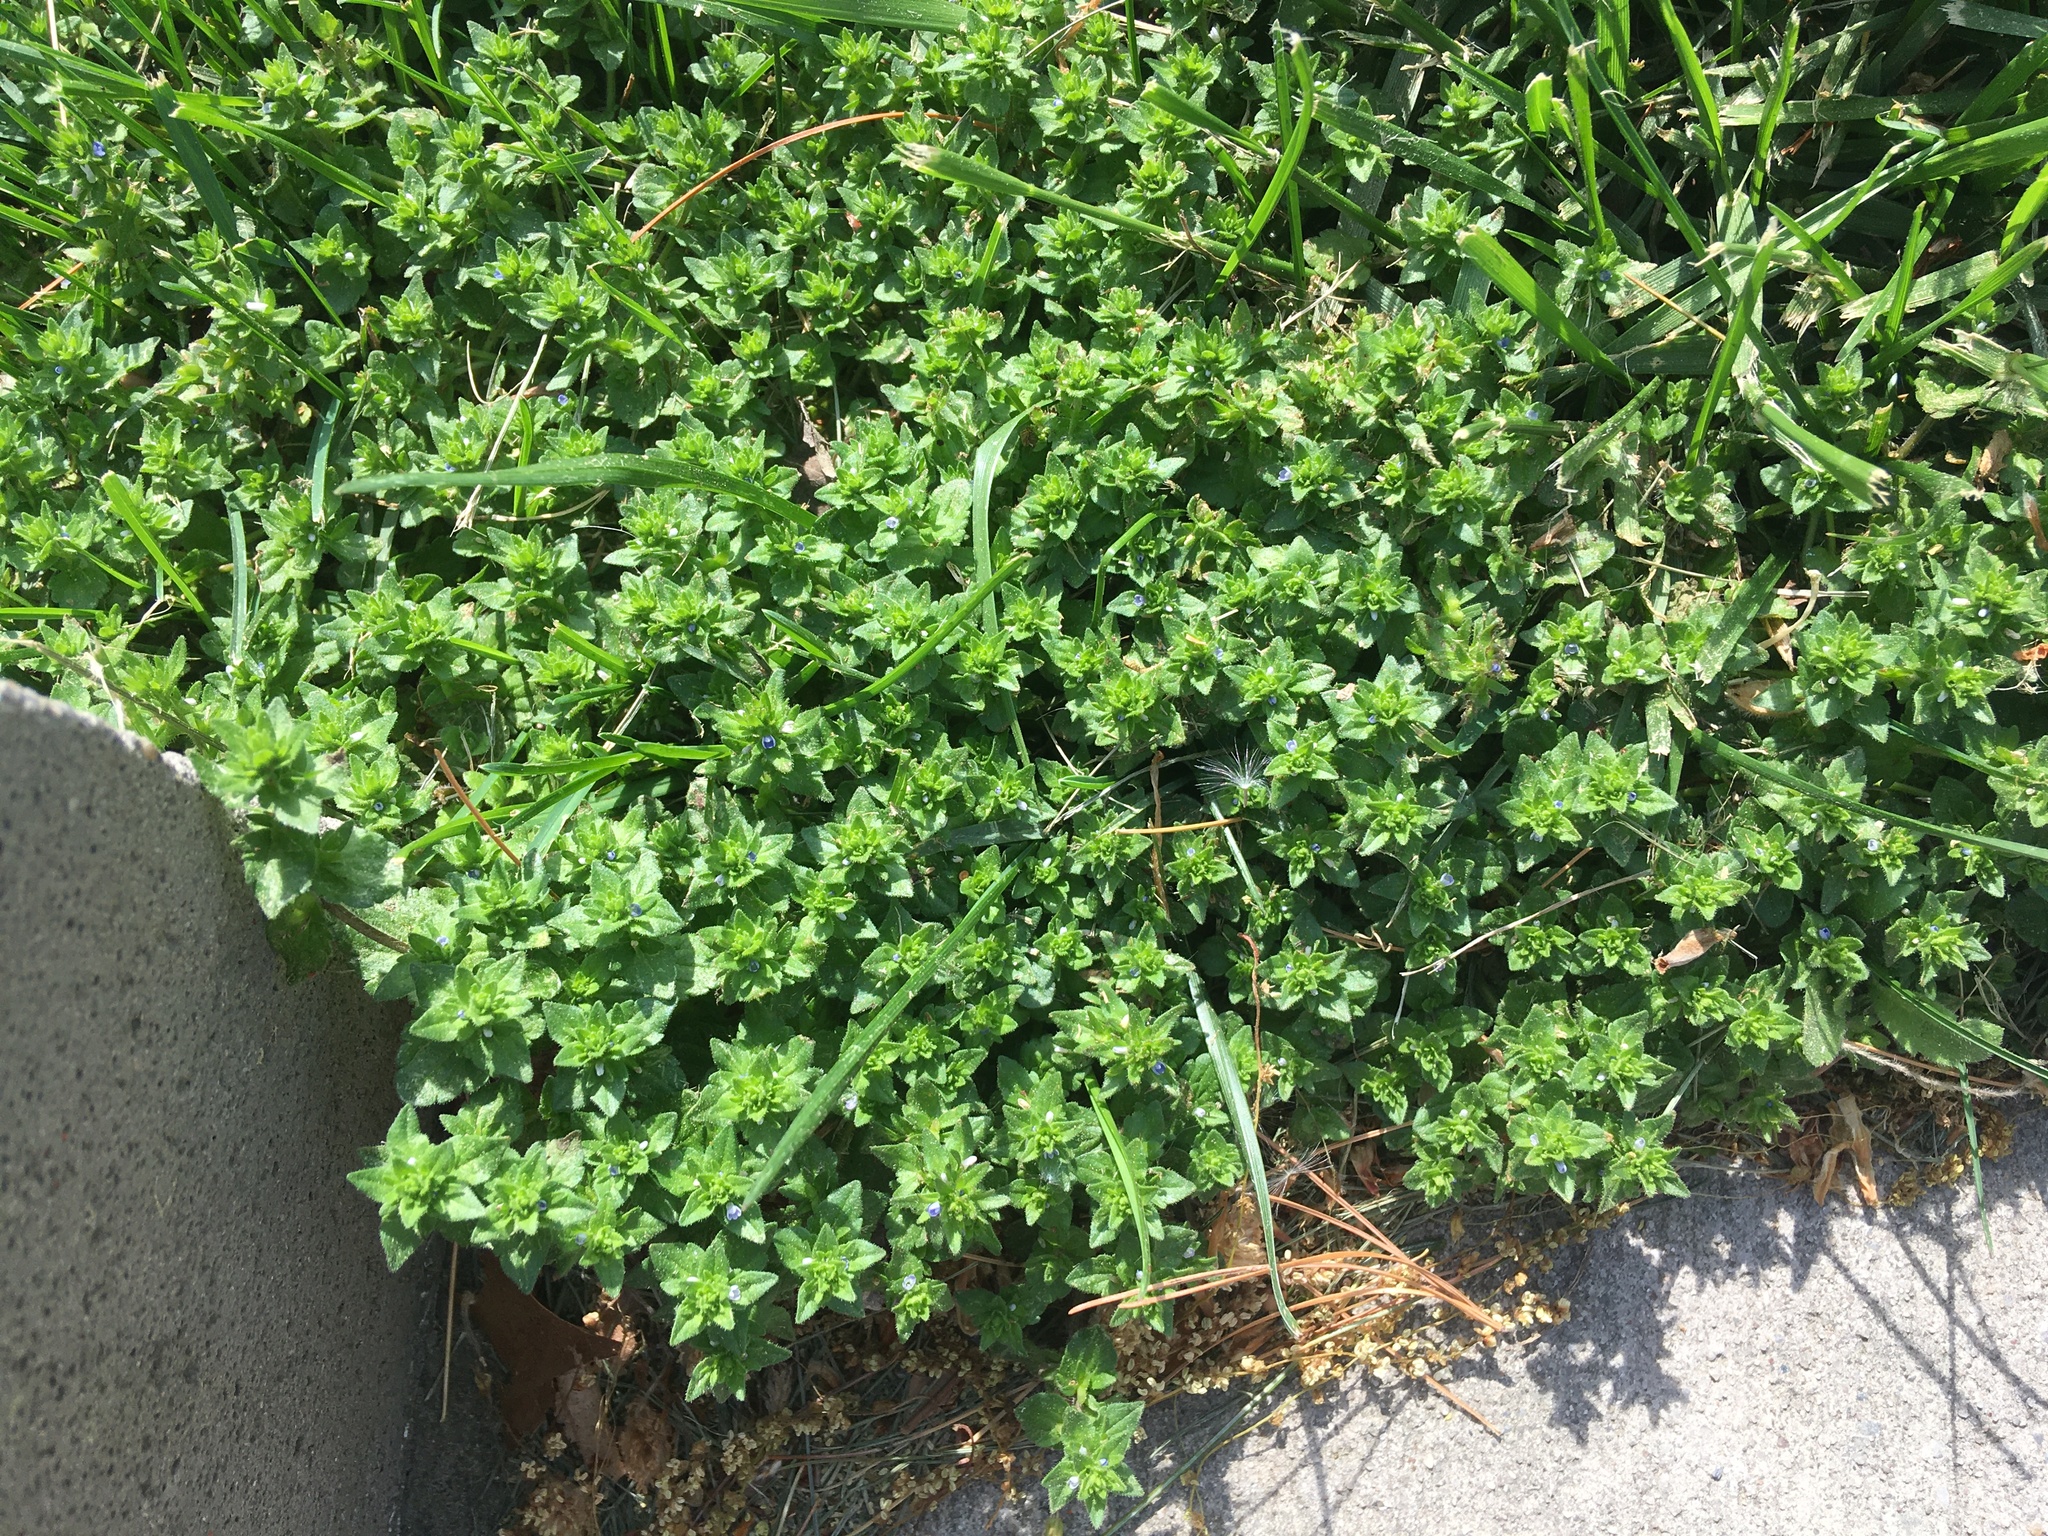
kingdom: Plantae
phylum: Tracheophyta
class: Magnoliopsida
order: Lamiales
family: Plantaginaceae
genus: Veronica
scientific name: Veronica arvensis
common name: Corn speedwell
